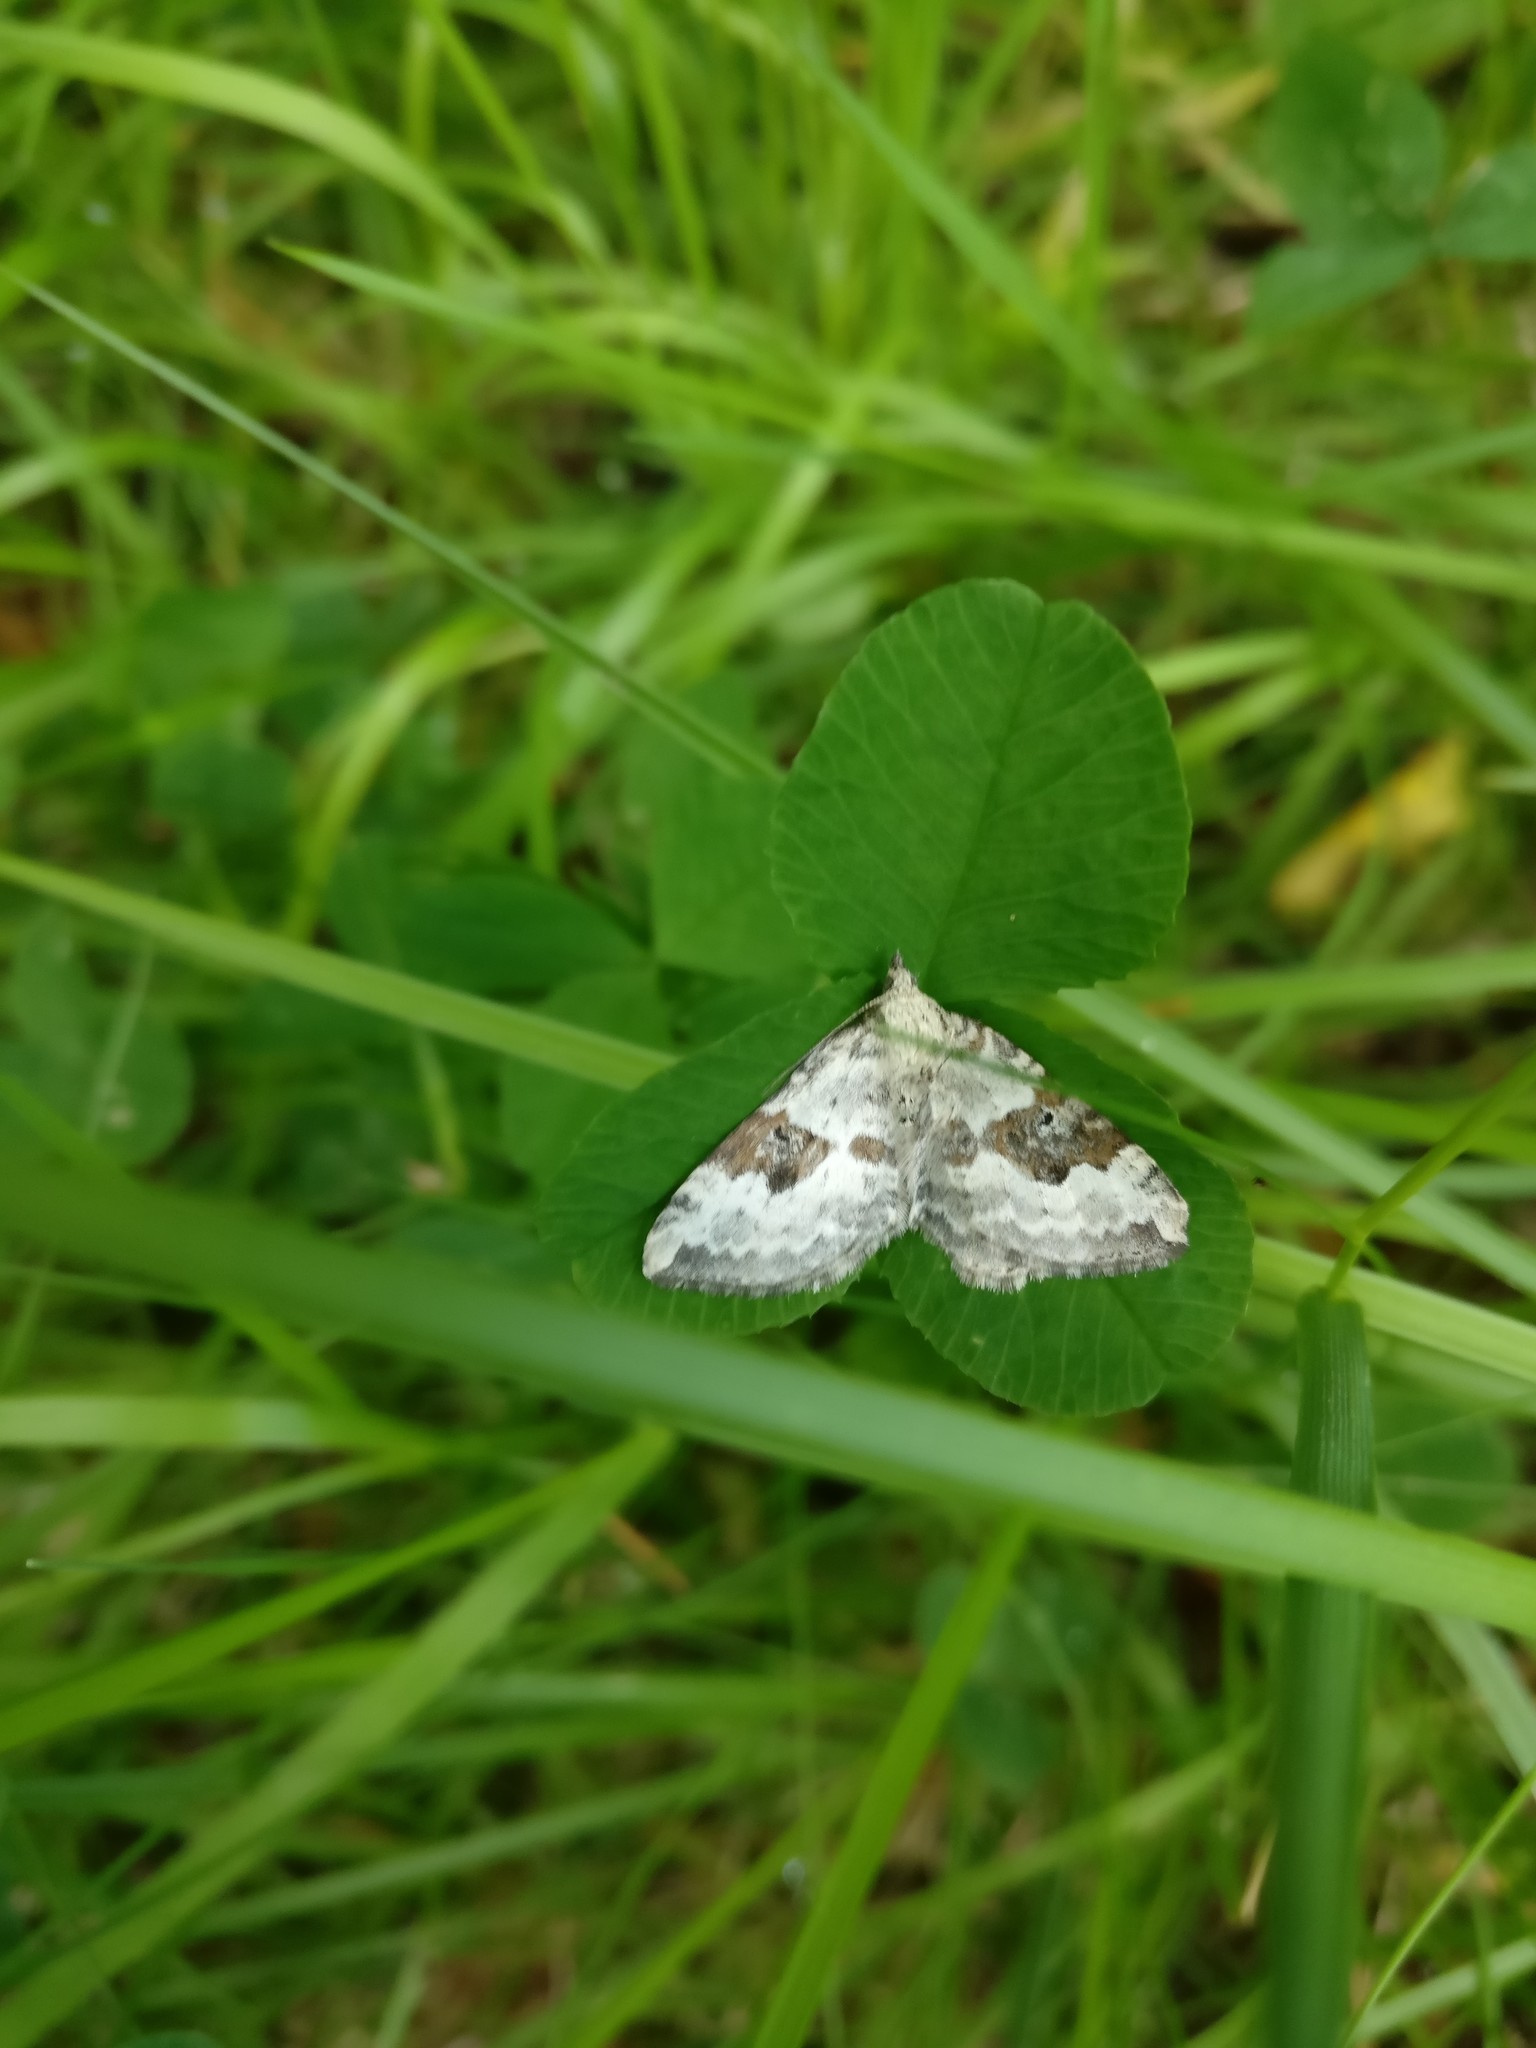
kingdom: Animalia
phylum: Arthropoda
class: Insecta
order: Lepidoptera
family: Geometridae
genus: Xanthorhoe
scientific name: Xanthorhoe montanata
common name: Silver-ground carpet
